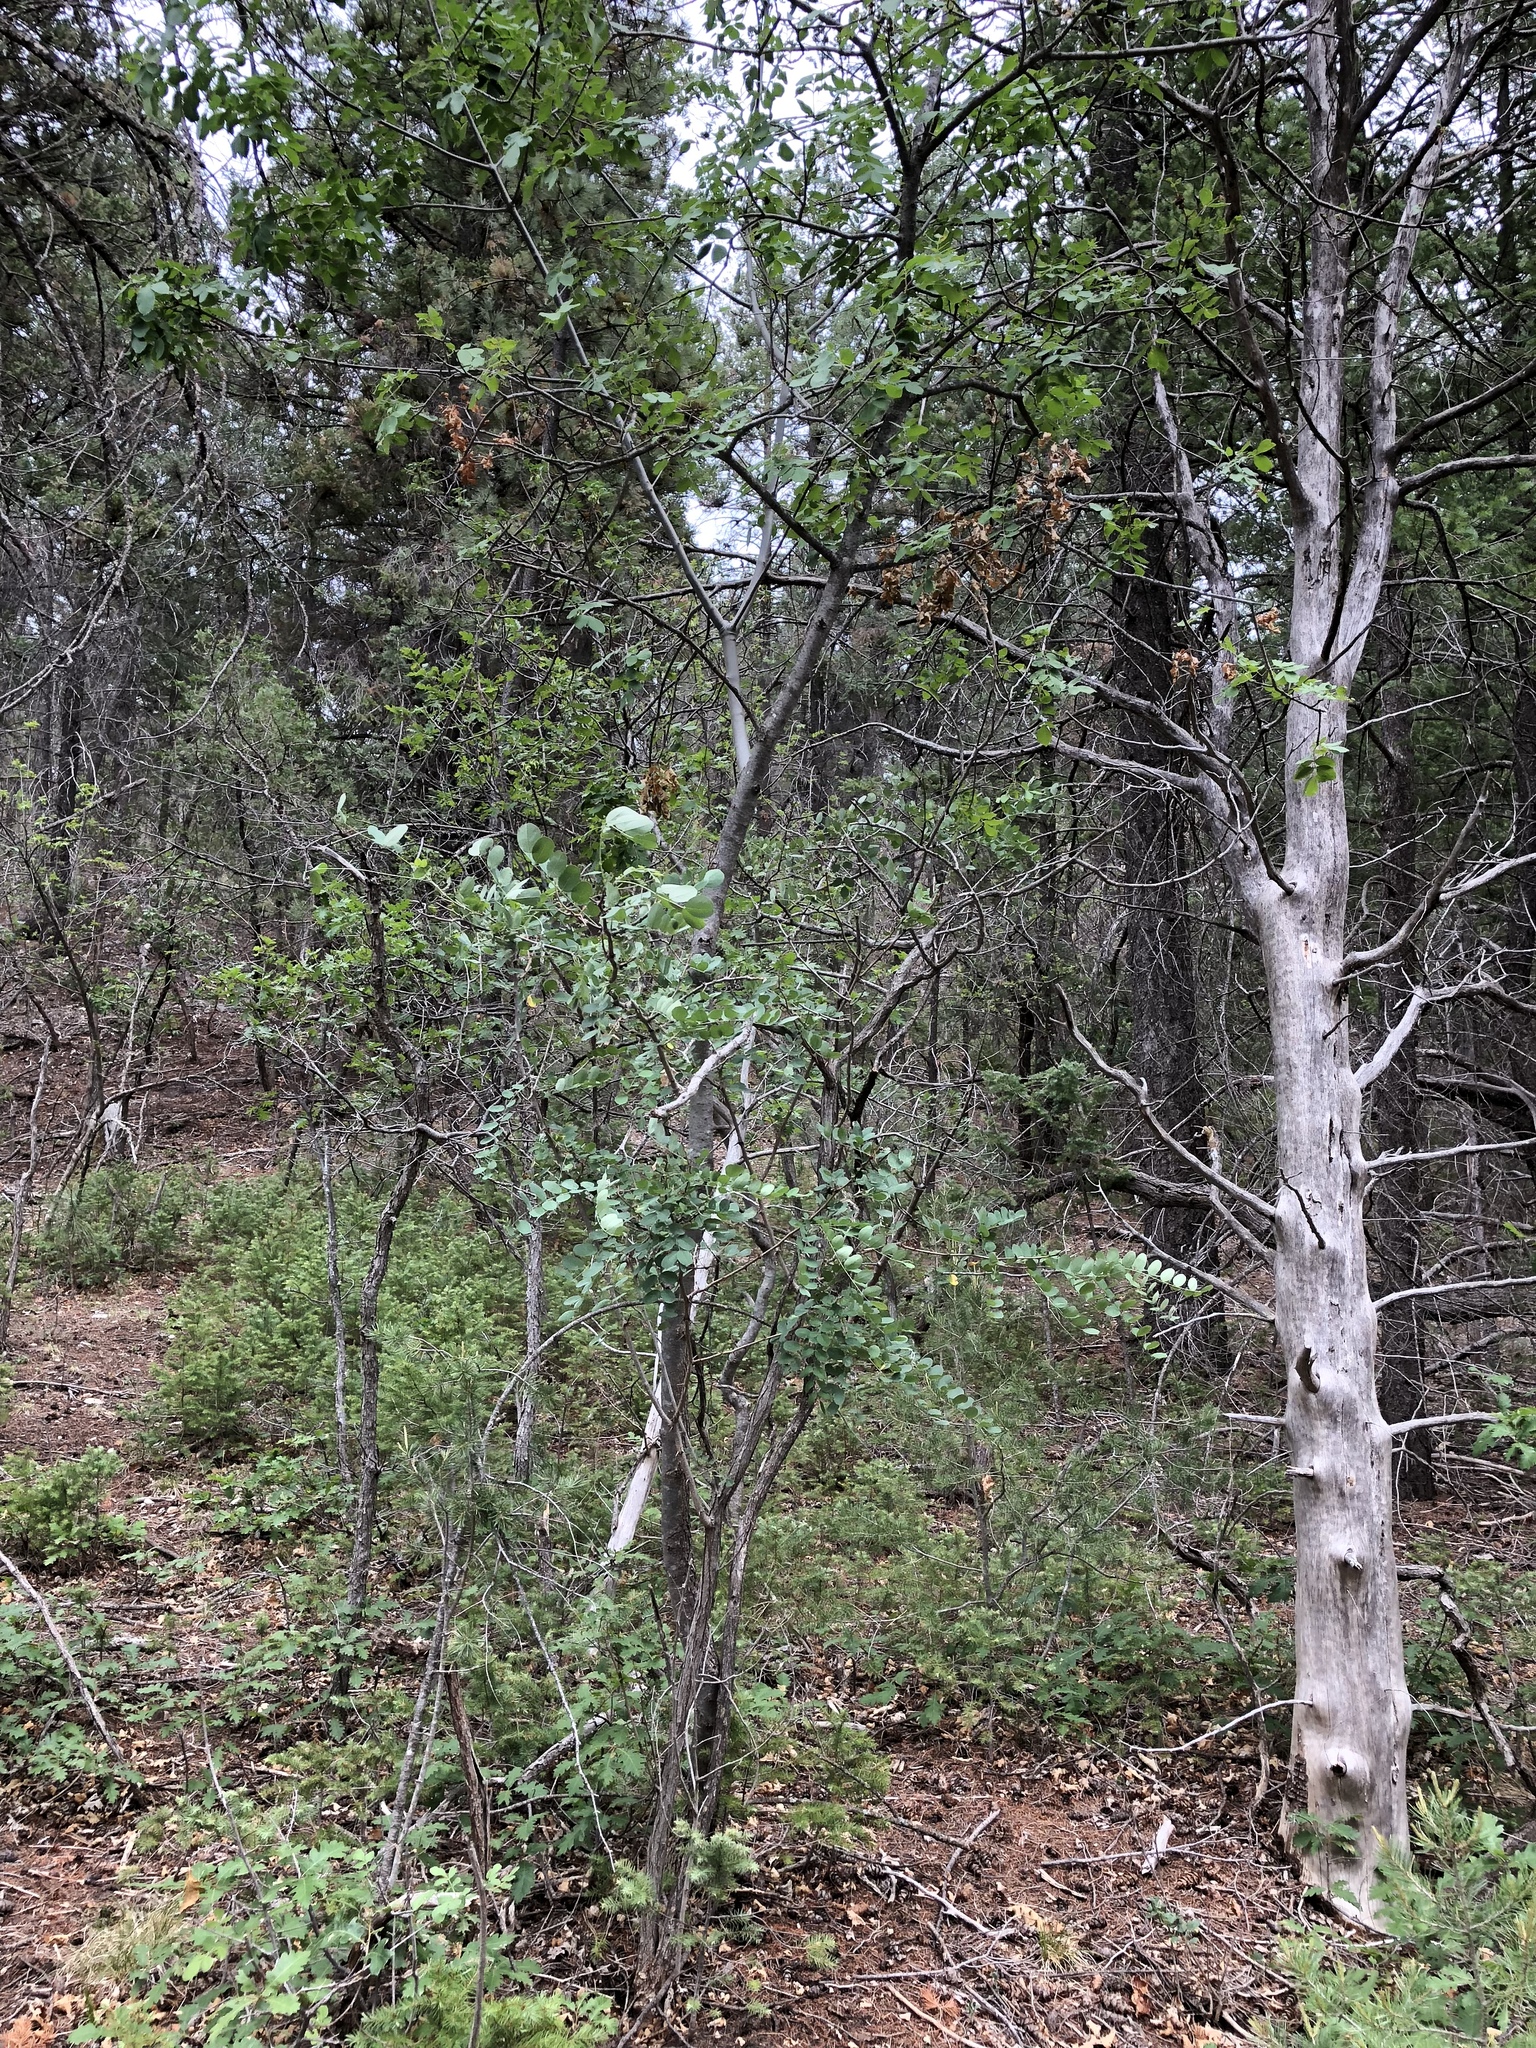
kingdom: Plantae
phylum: Tracheophyta
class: Magnoliopsida
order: Fabales
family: Fabaceae
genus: Robinia
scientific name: Robinia neomexicana
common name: New mexico locust
